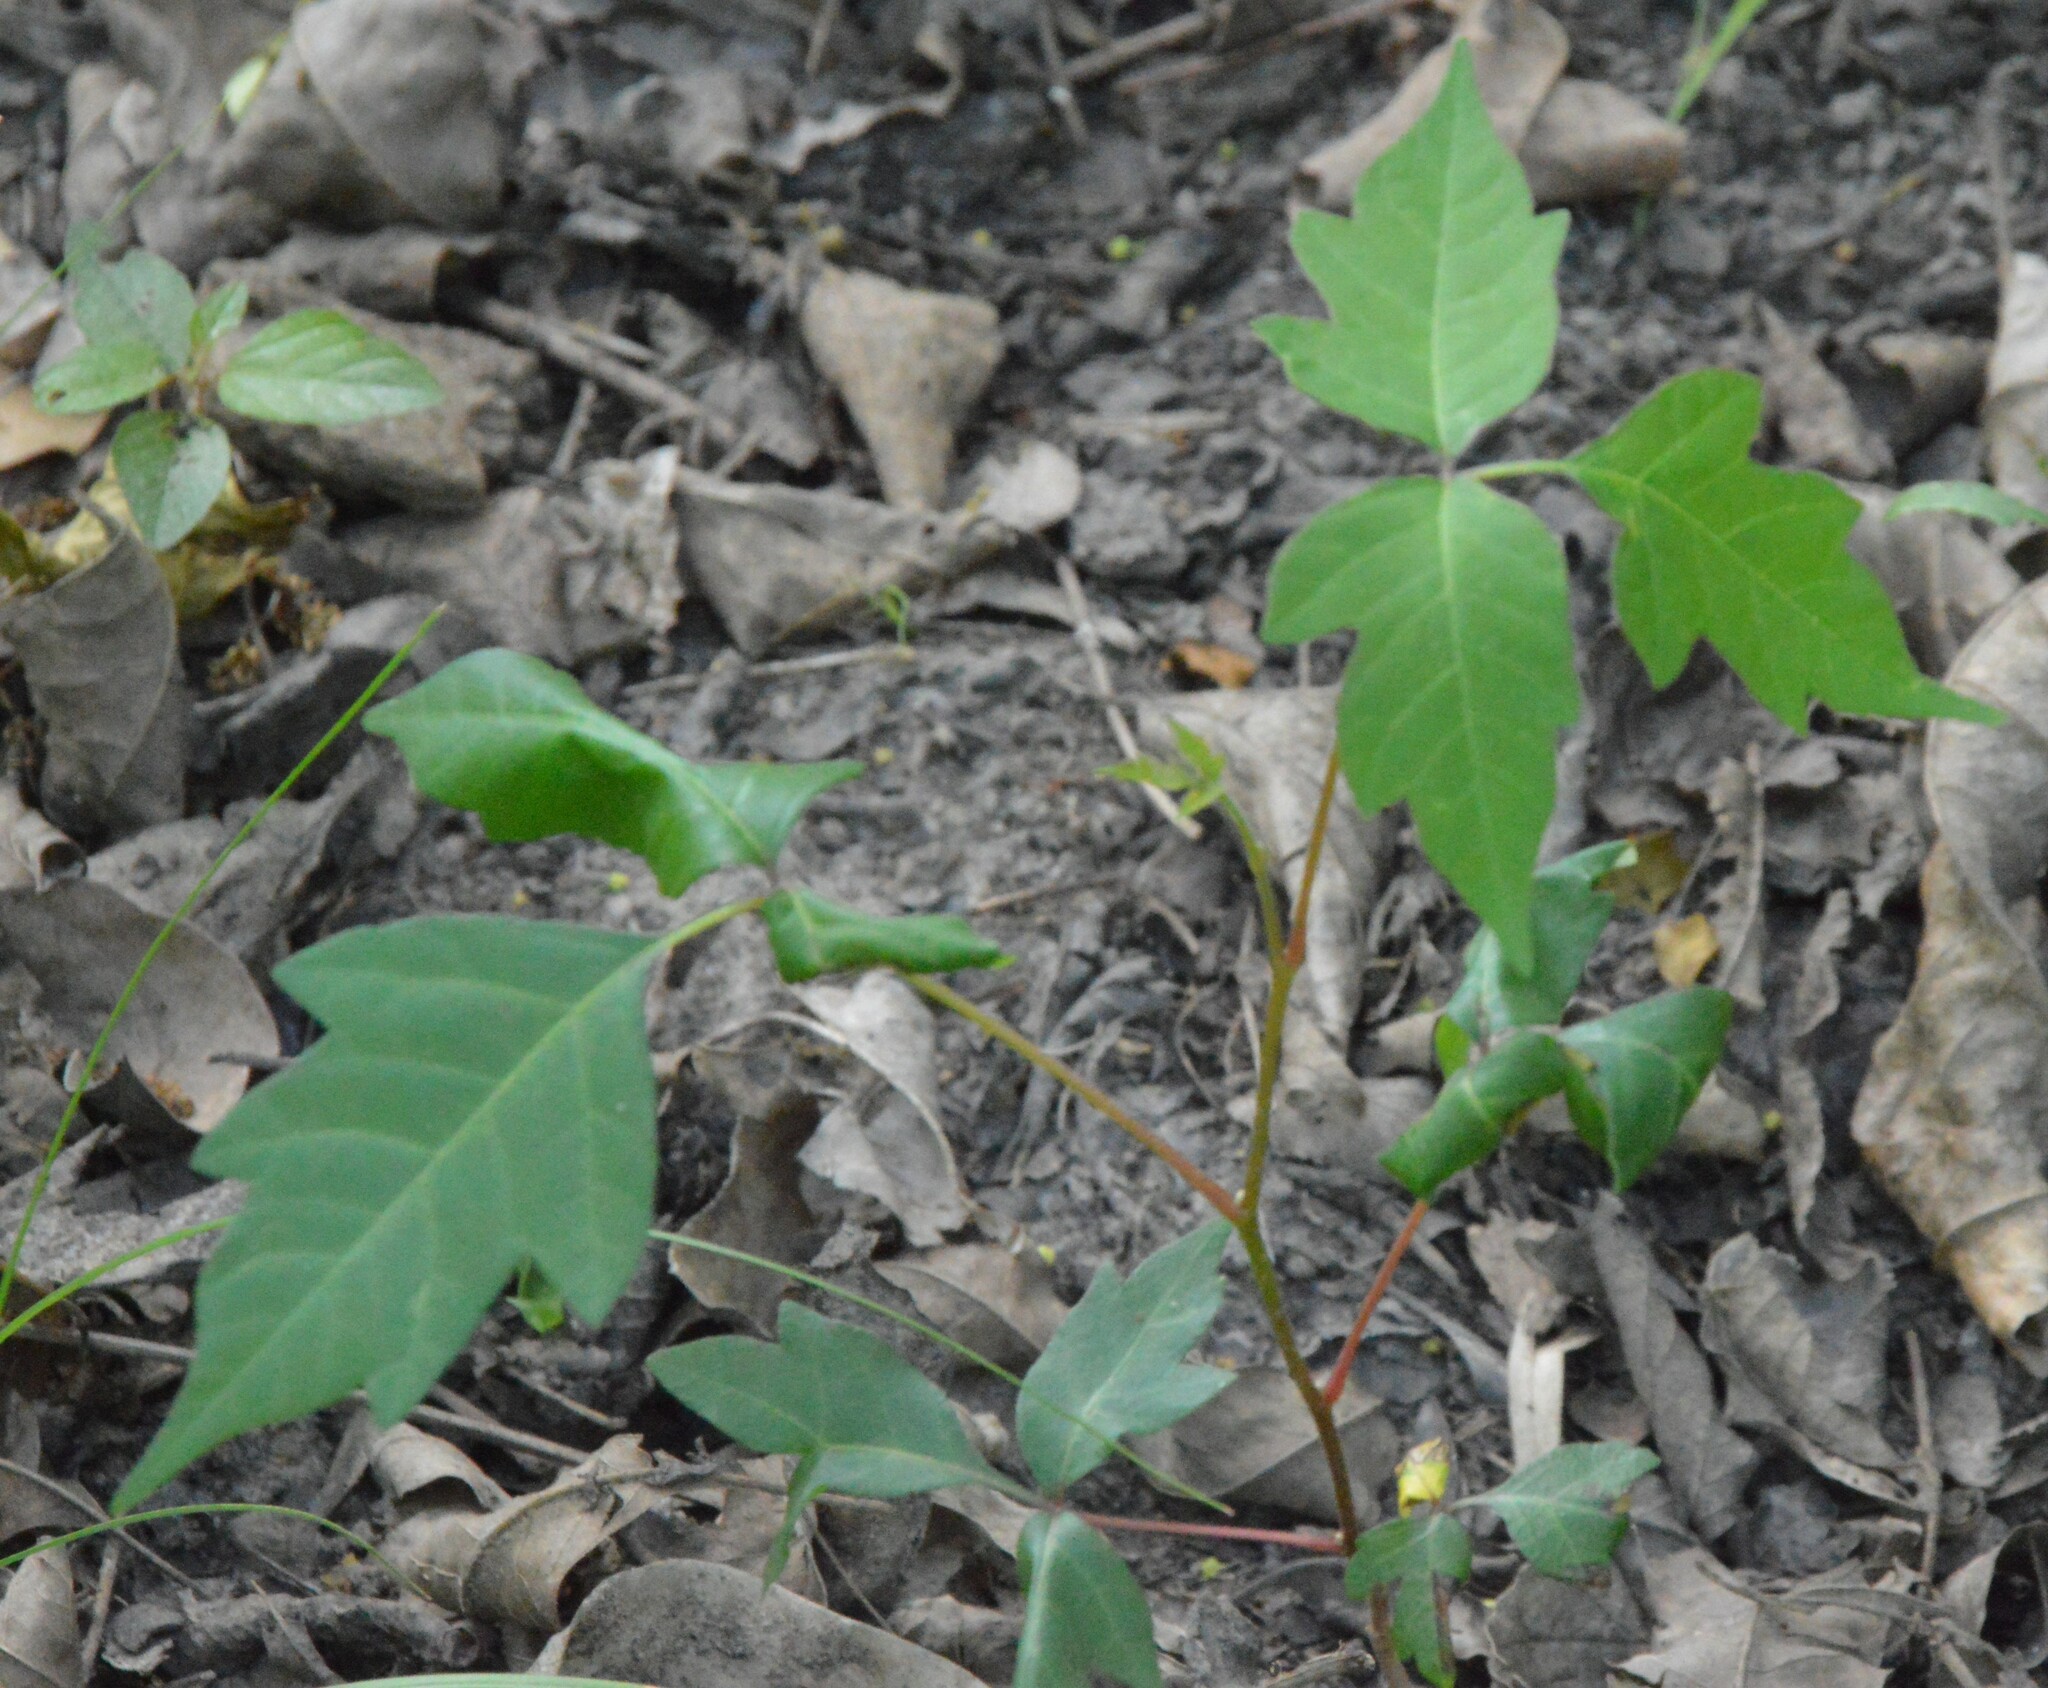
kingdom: Plantae
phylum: Tracheophyta
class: Magnoliopsida
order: Sapindales
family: Anacardiaceae
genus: Toxicodendron
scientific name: Toxicodendron radicans
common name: Poison ivy
